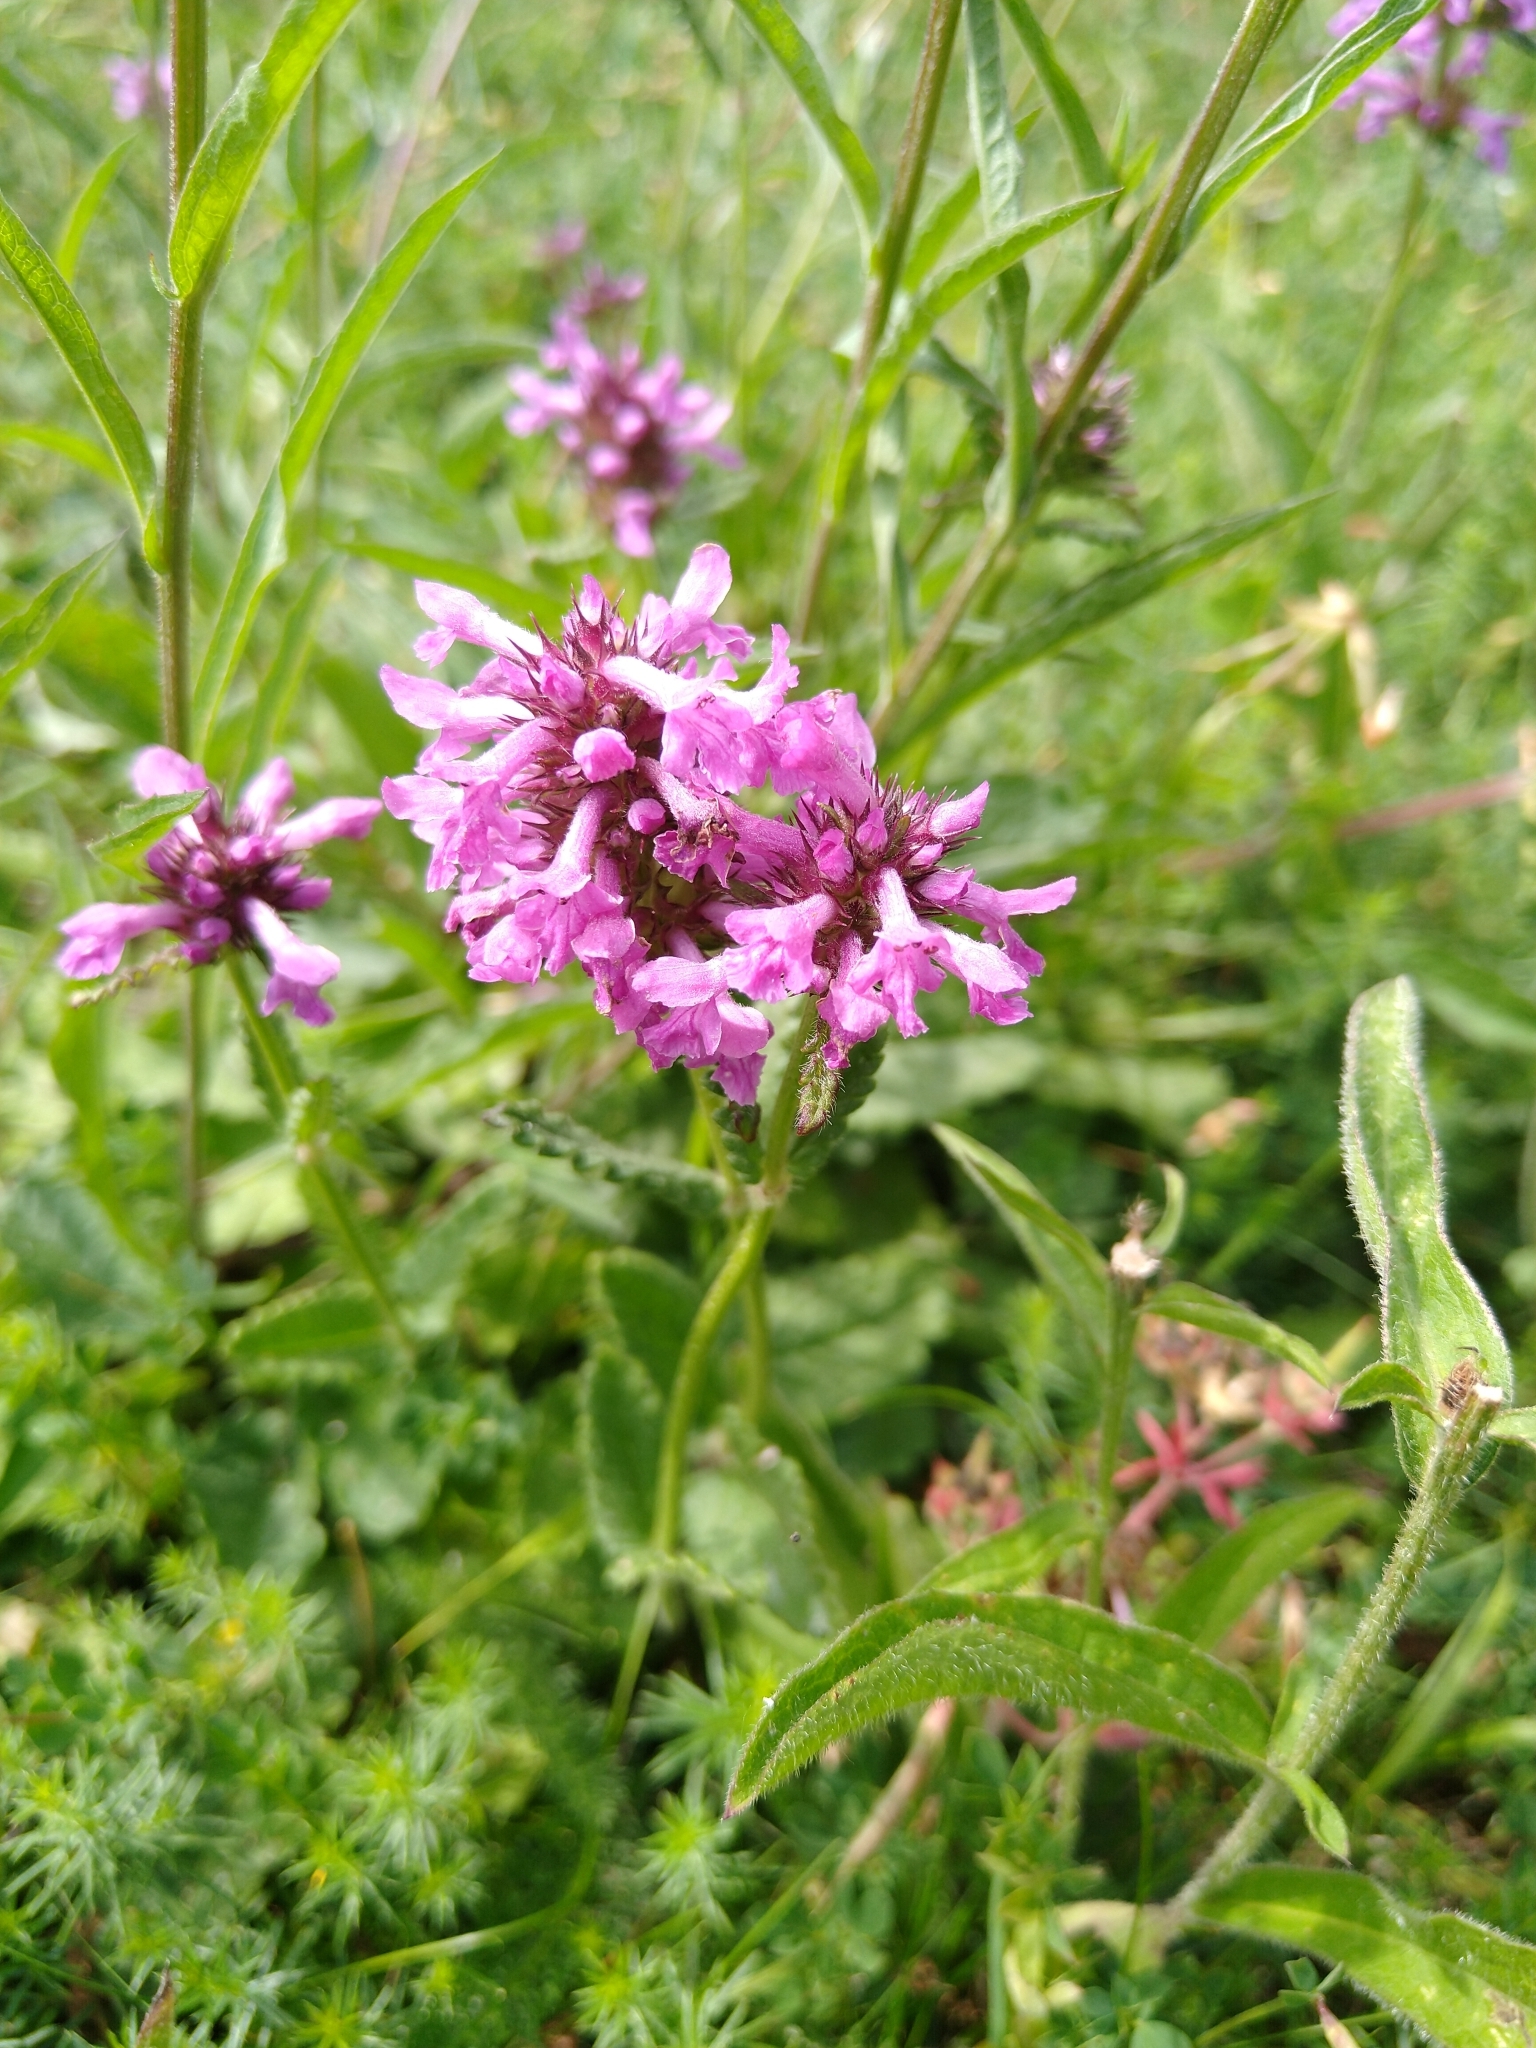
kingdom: Plantae
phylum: Tracheophyta
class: Magnoliopsida
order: Lamiales
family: Lamiaceae
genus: Betonica
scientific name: Betonica officinalis
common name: Bishop's-wort
